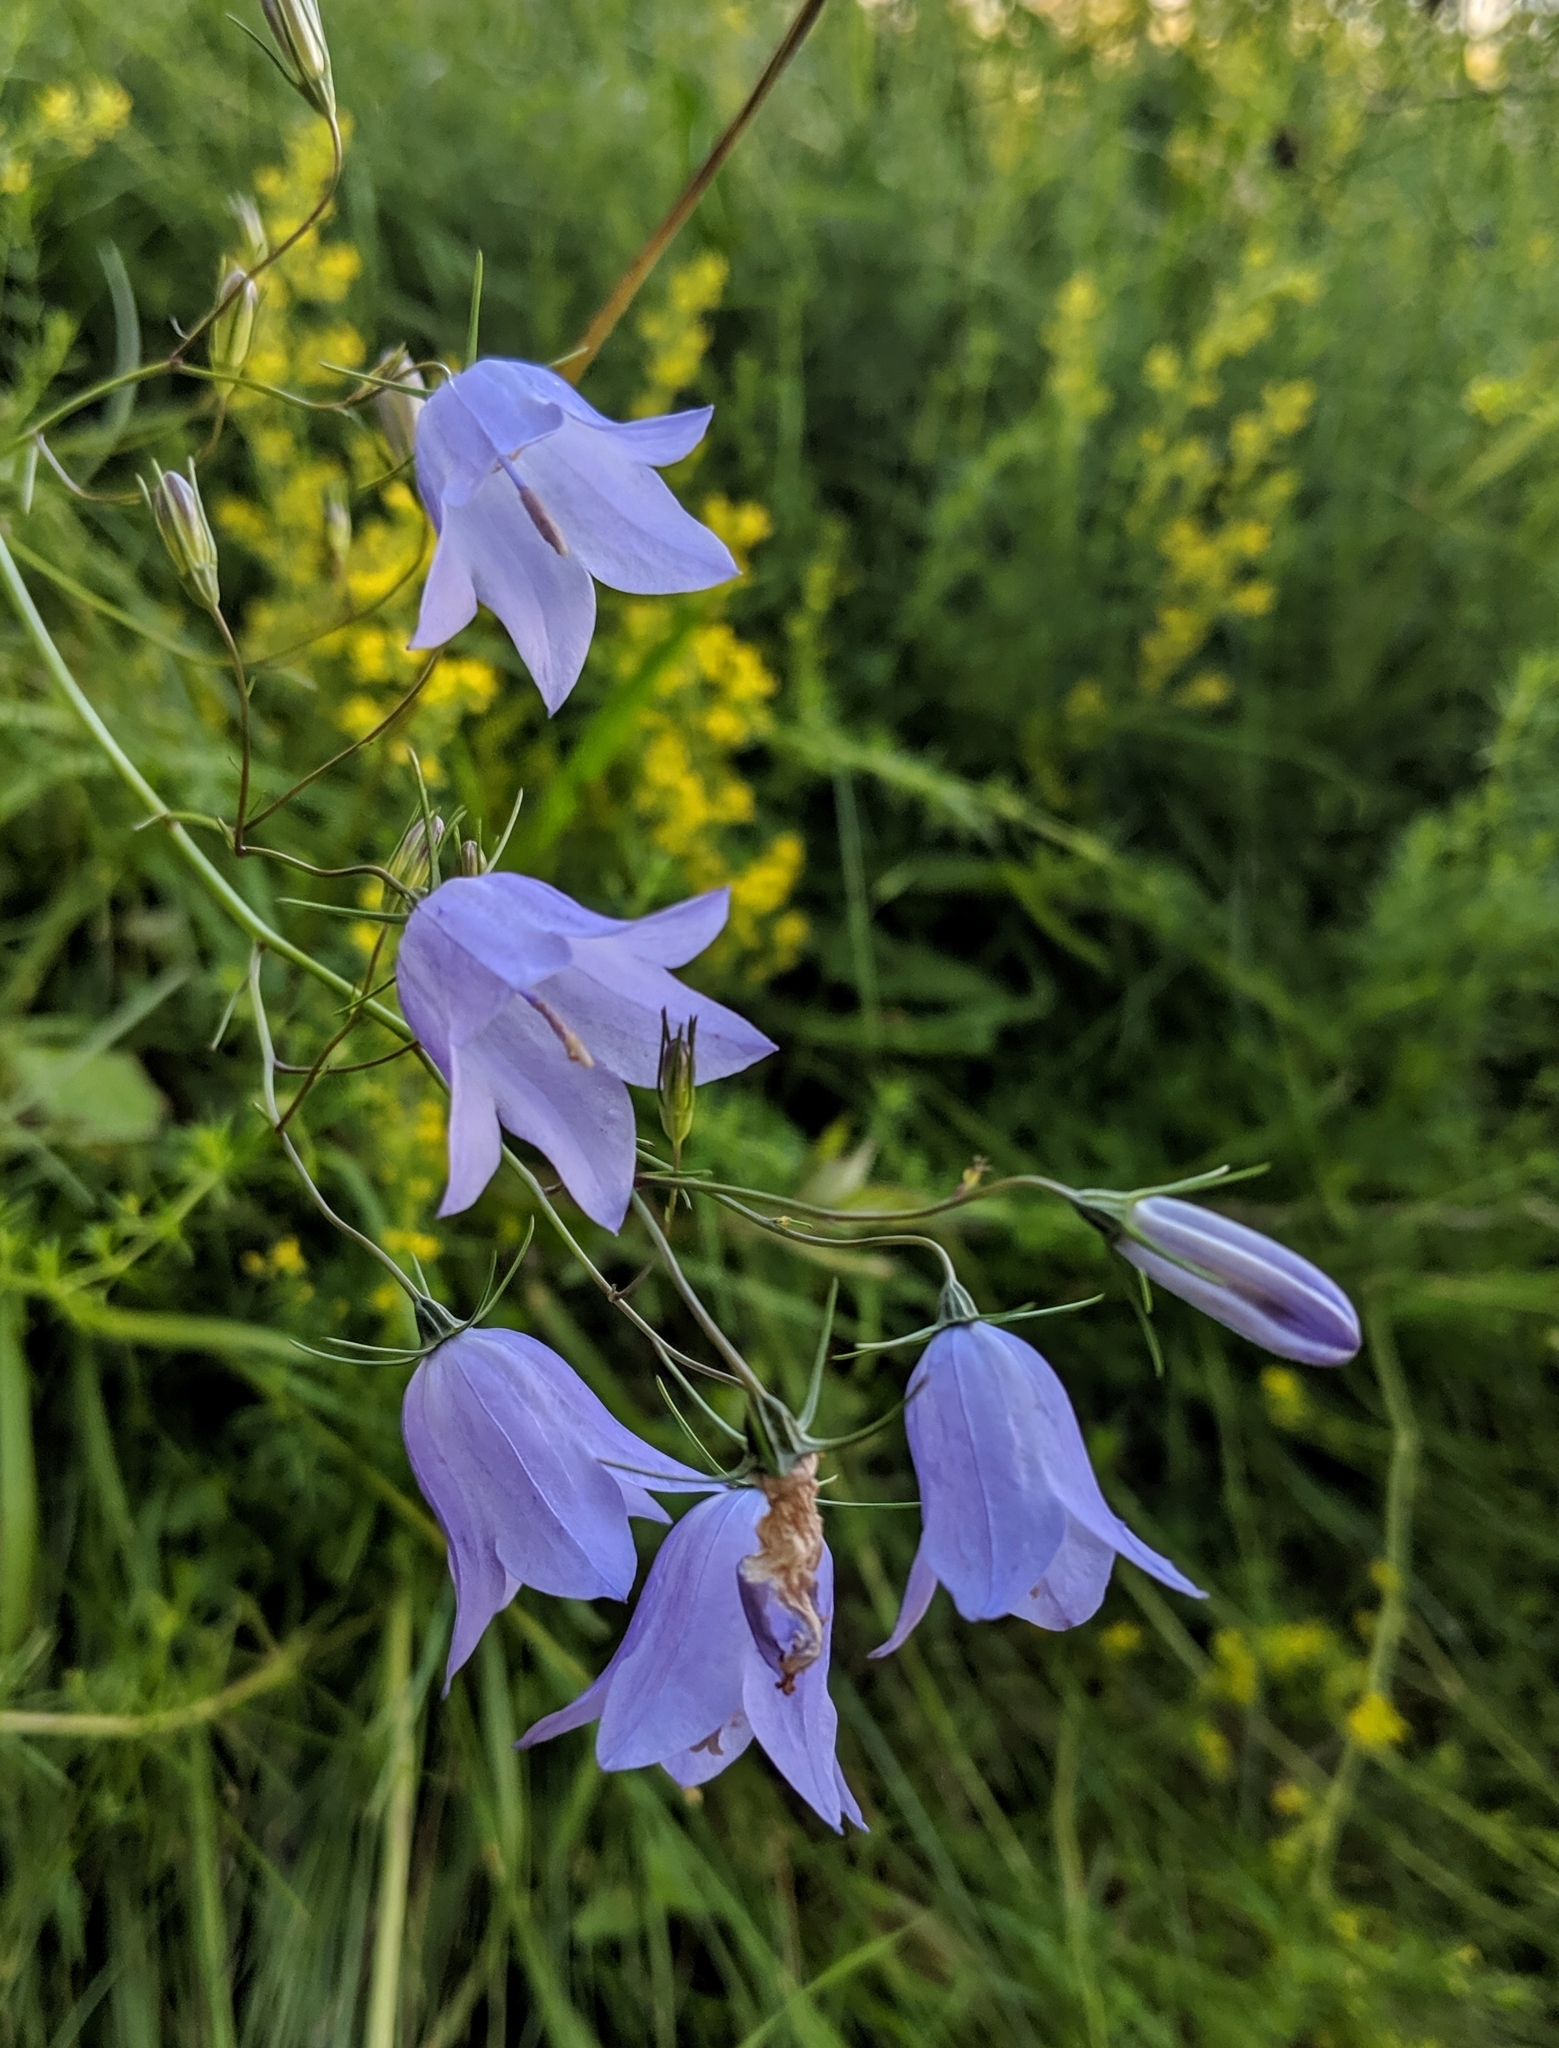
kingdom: Plantae
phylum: Tracheophyta
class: Magnoliopsida
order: Asterales
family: Campanulaceae
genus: Campanula
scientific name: Campanula rotundifolia
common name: Harebell
